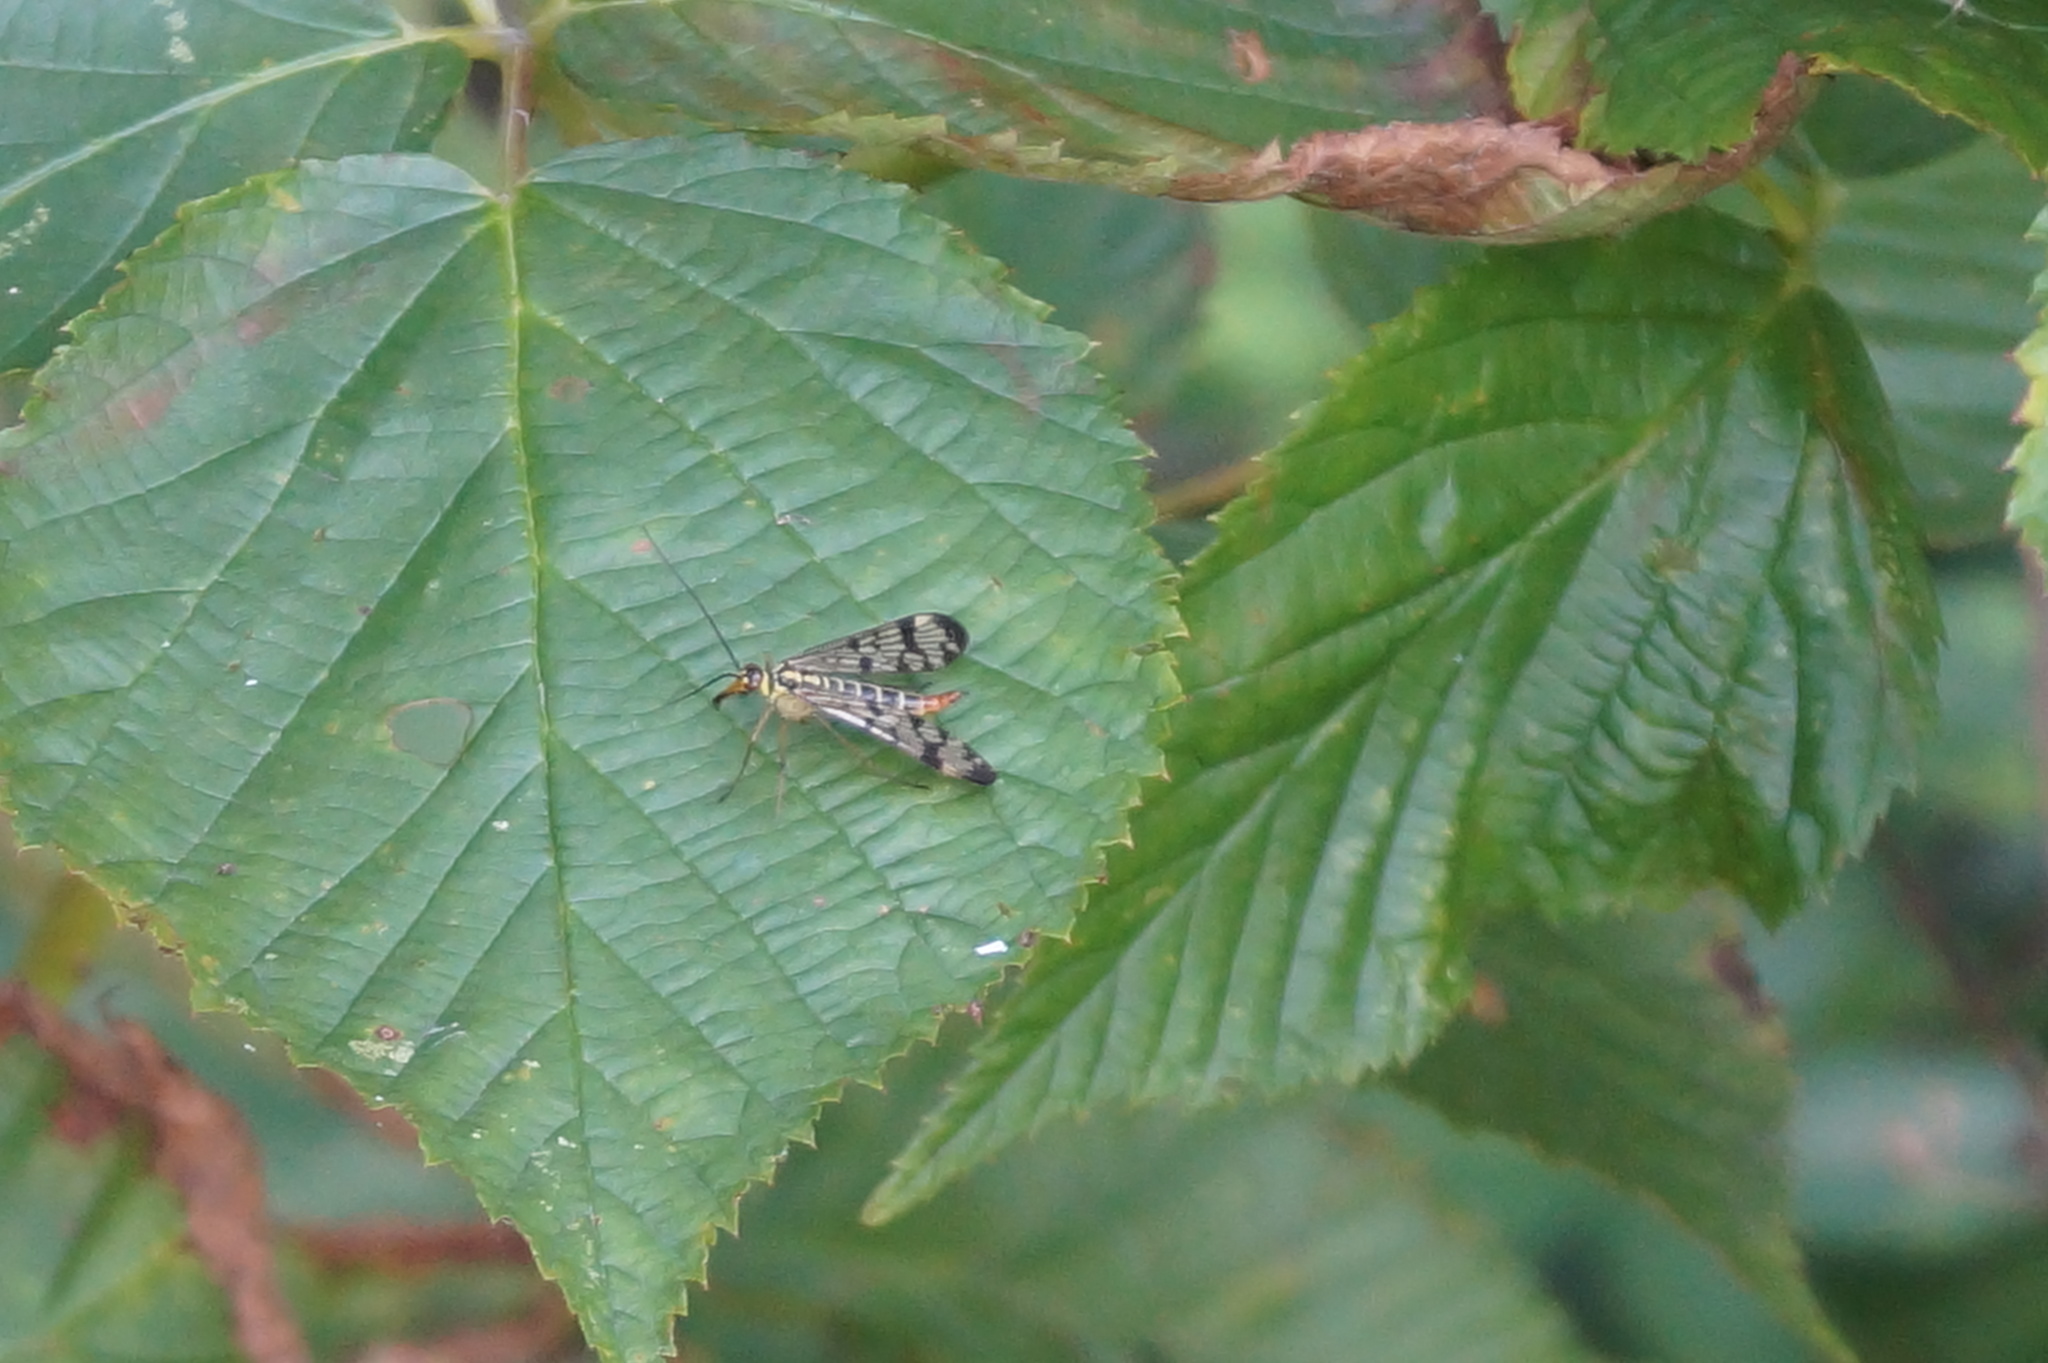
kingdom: Animalia
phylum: Arthropoda
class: Insecta
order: Mecoptera
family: Panorpidae
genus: Panorpa
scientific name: Panorpa communis
